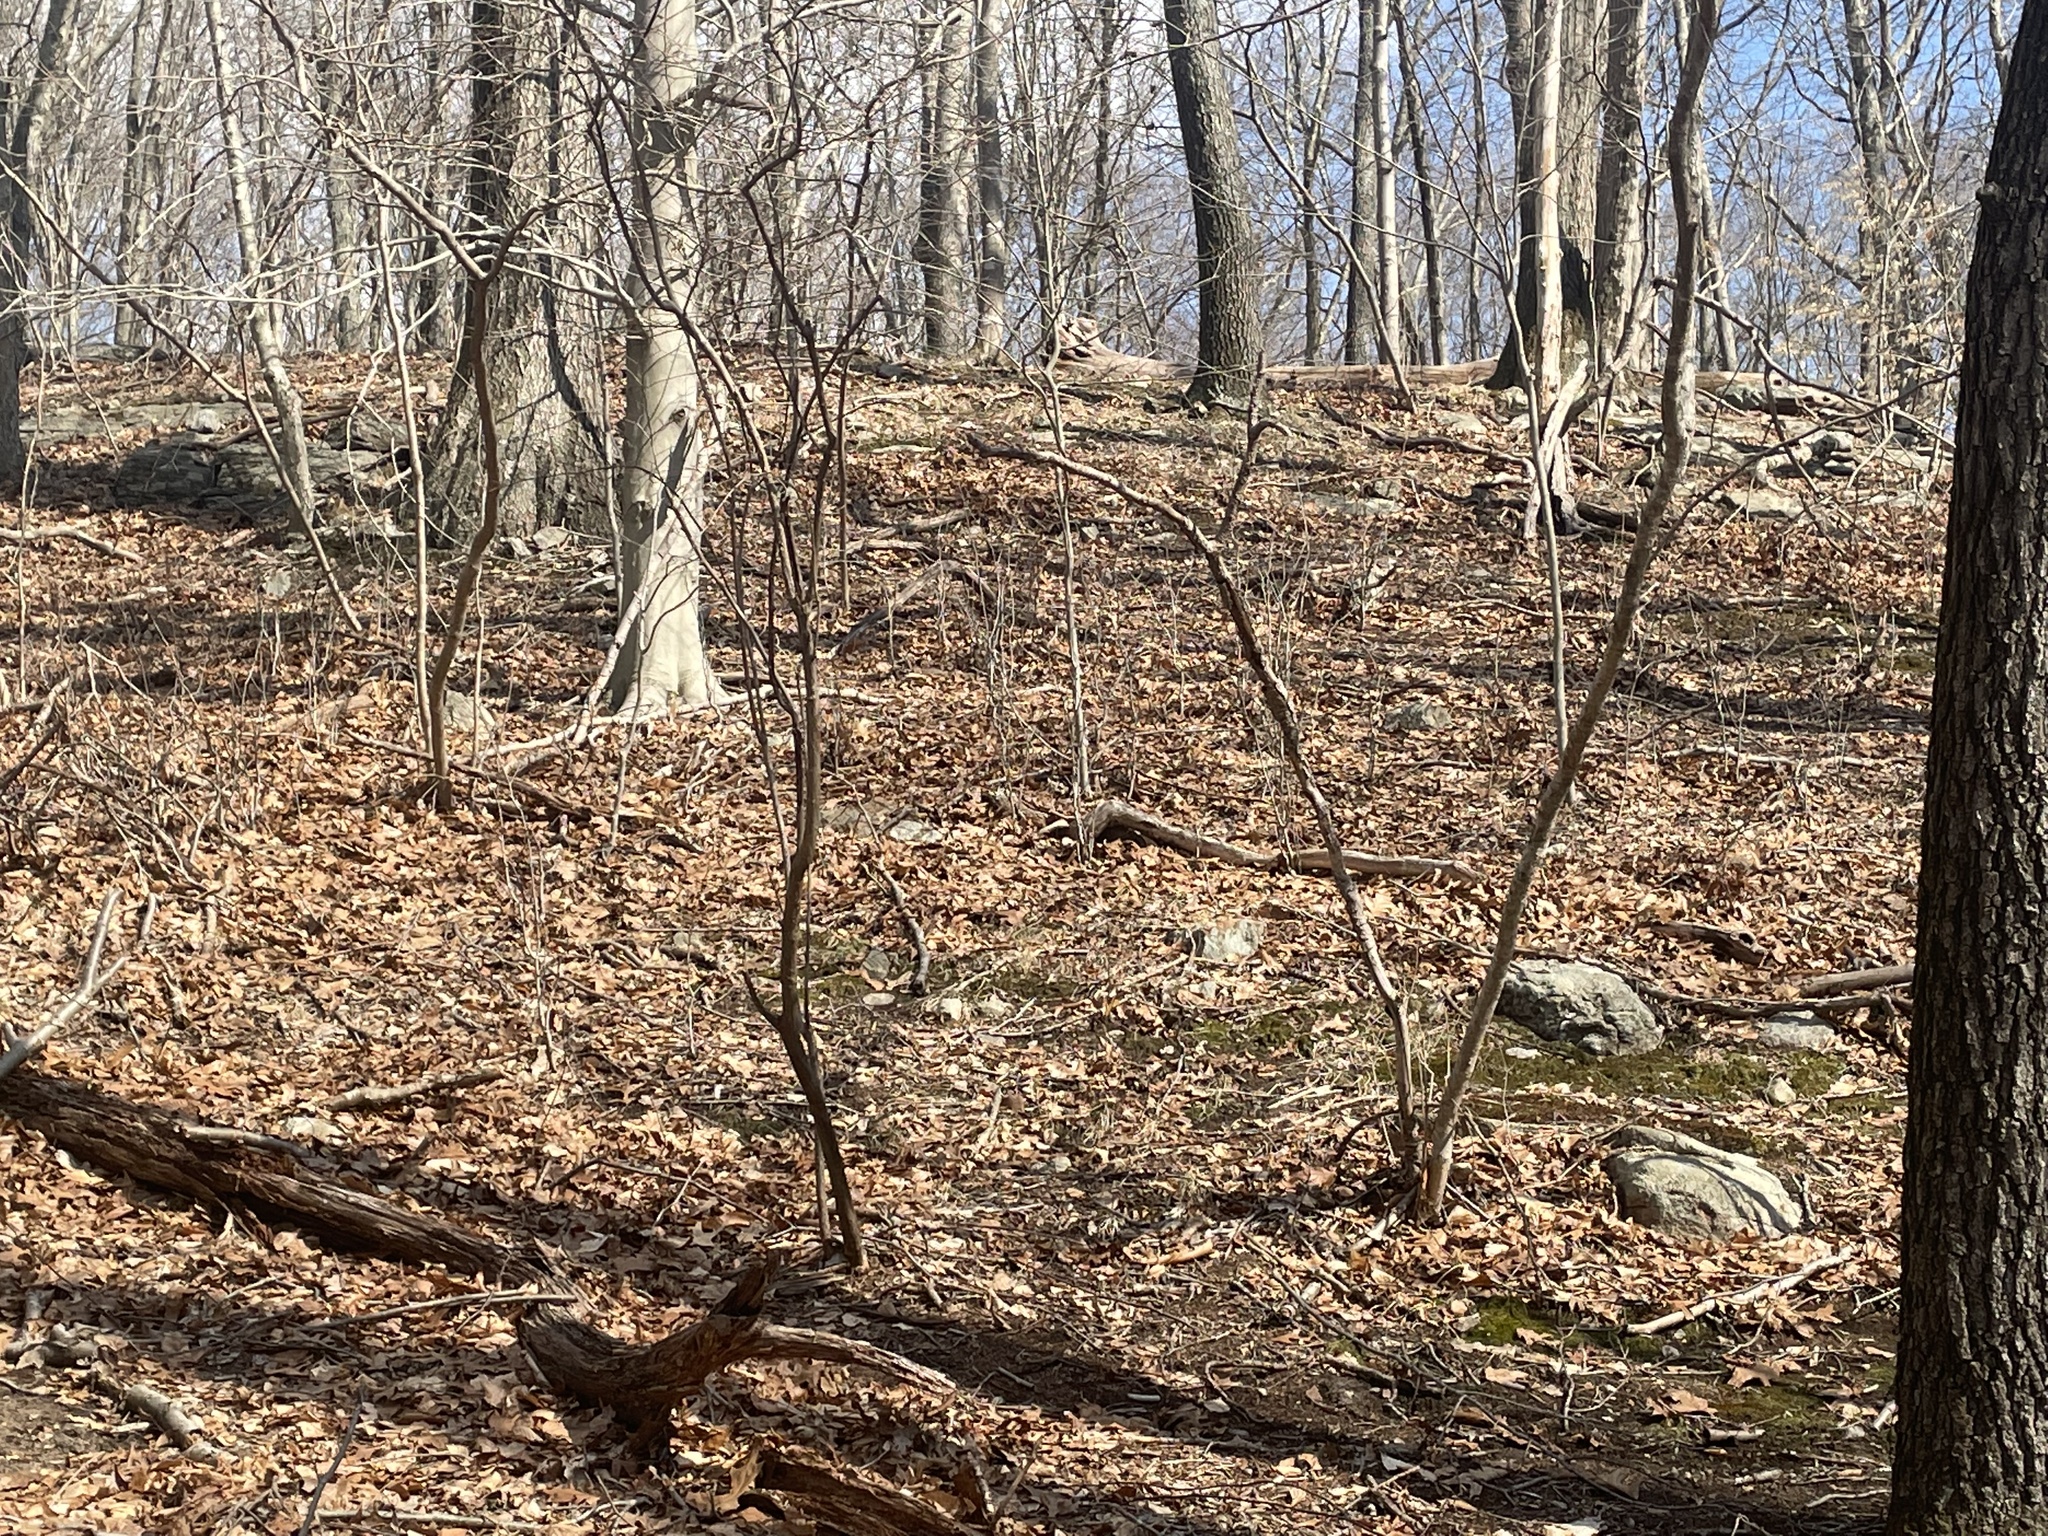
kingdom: Plantae
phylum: Tracheophyta
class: Magnoliopsida
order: Saxifragales
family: Hamamelidaceae
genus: Hamamelis
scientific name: Hamamelis virginiana
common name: Witch-hazel
